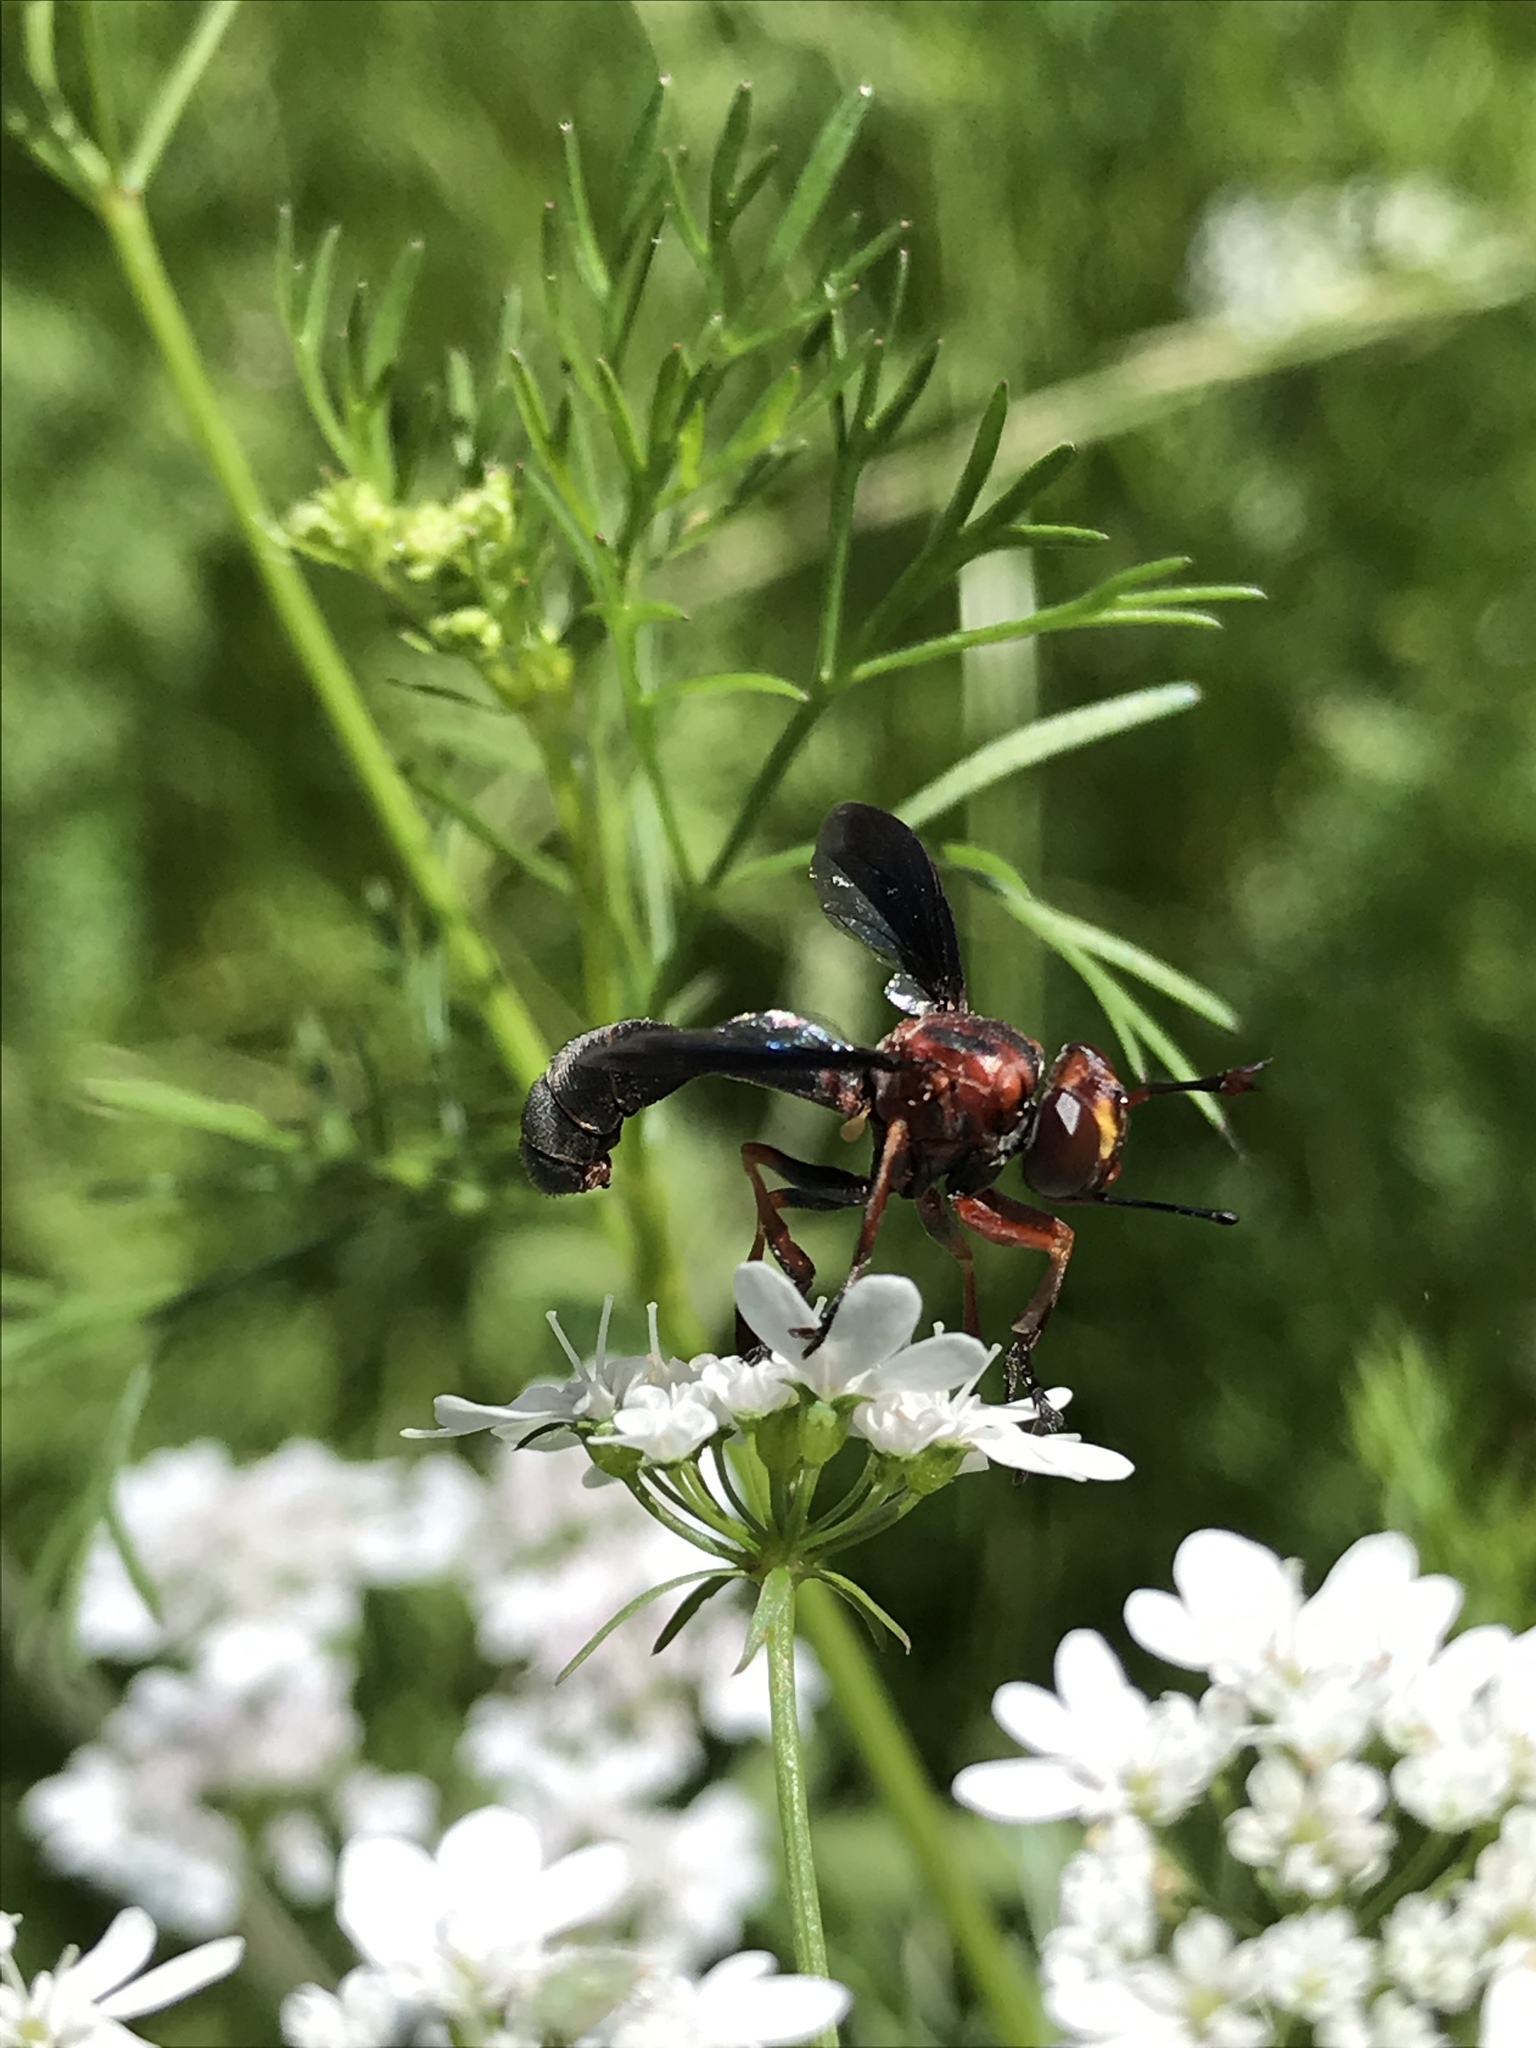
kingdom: Animalia
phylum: Arthropoda
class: Insecta
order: Diptera
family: Conopidae
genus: Physocephala
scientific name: Physocephala floridana
